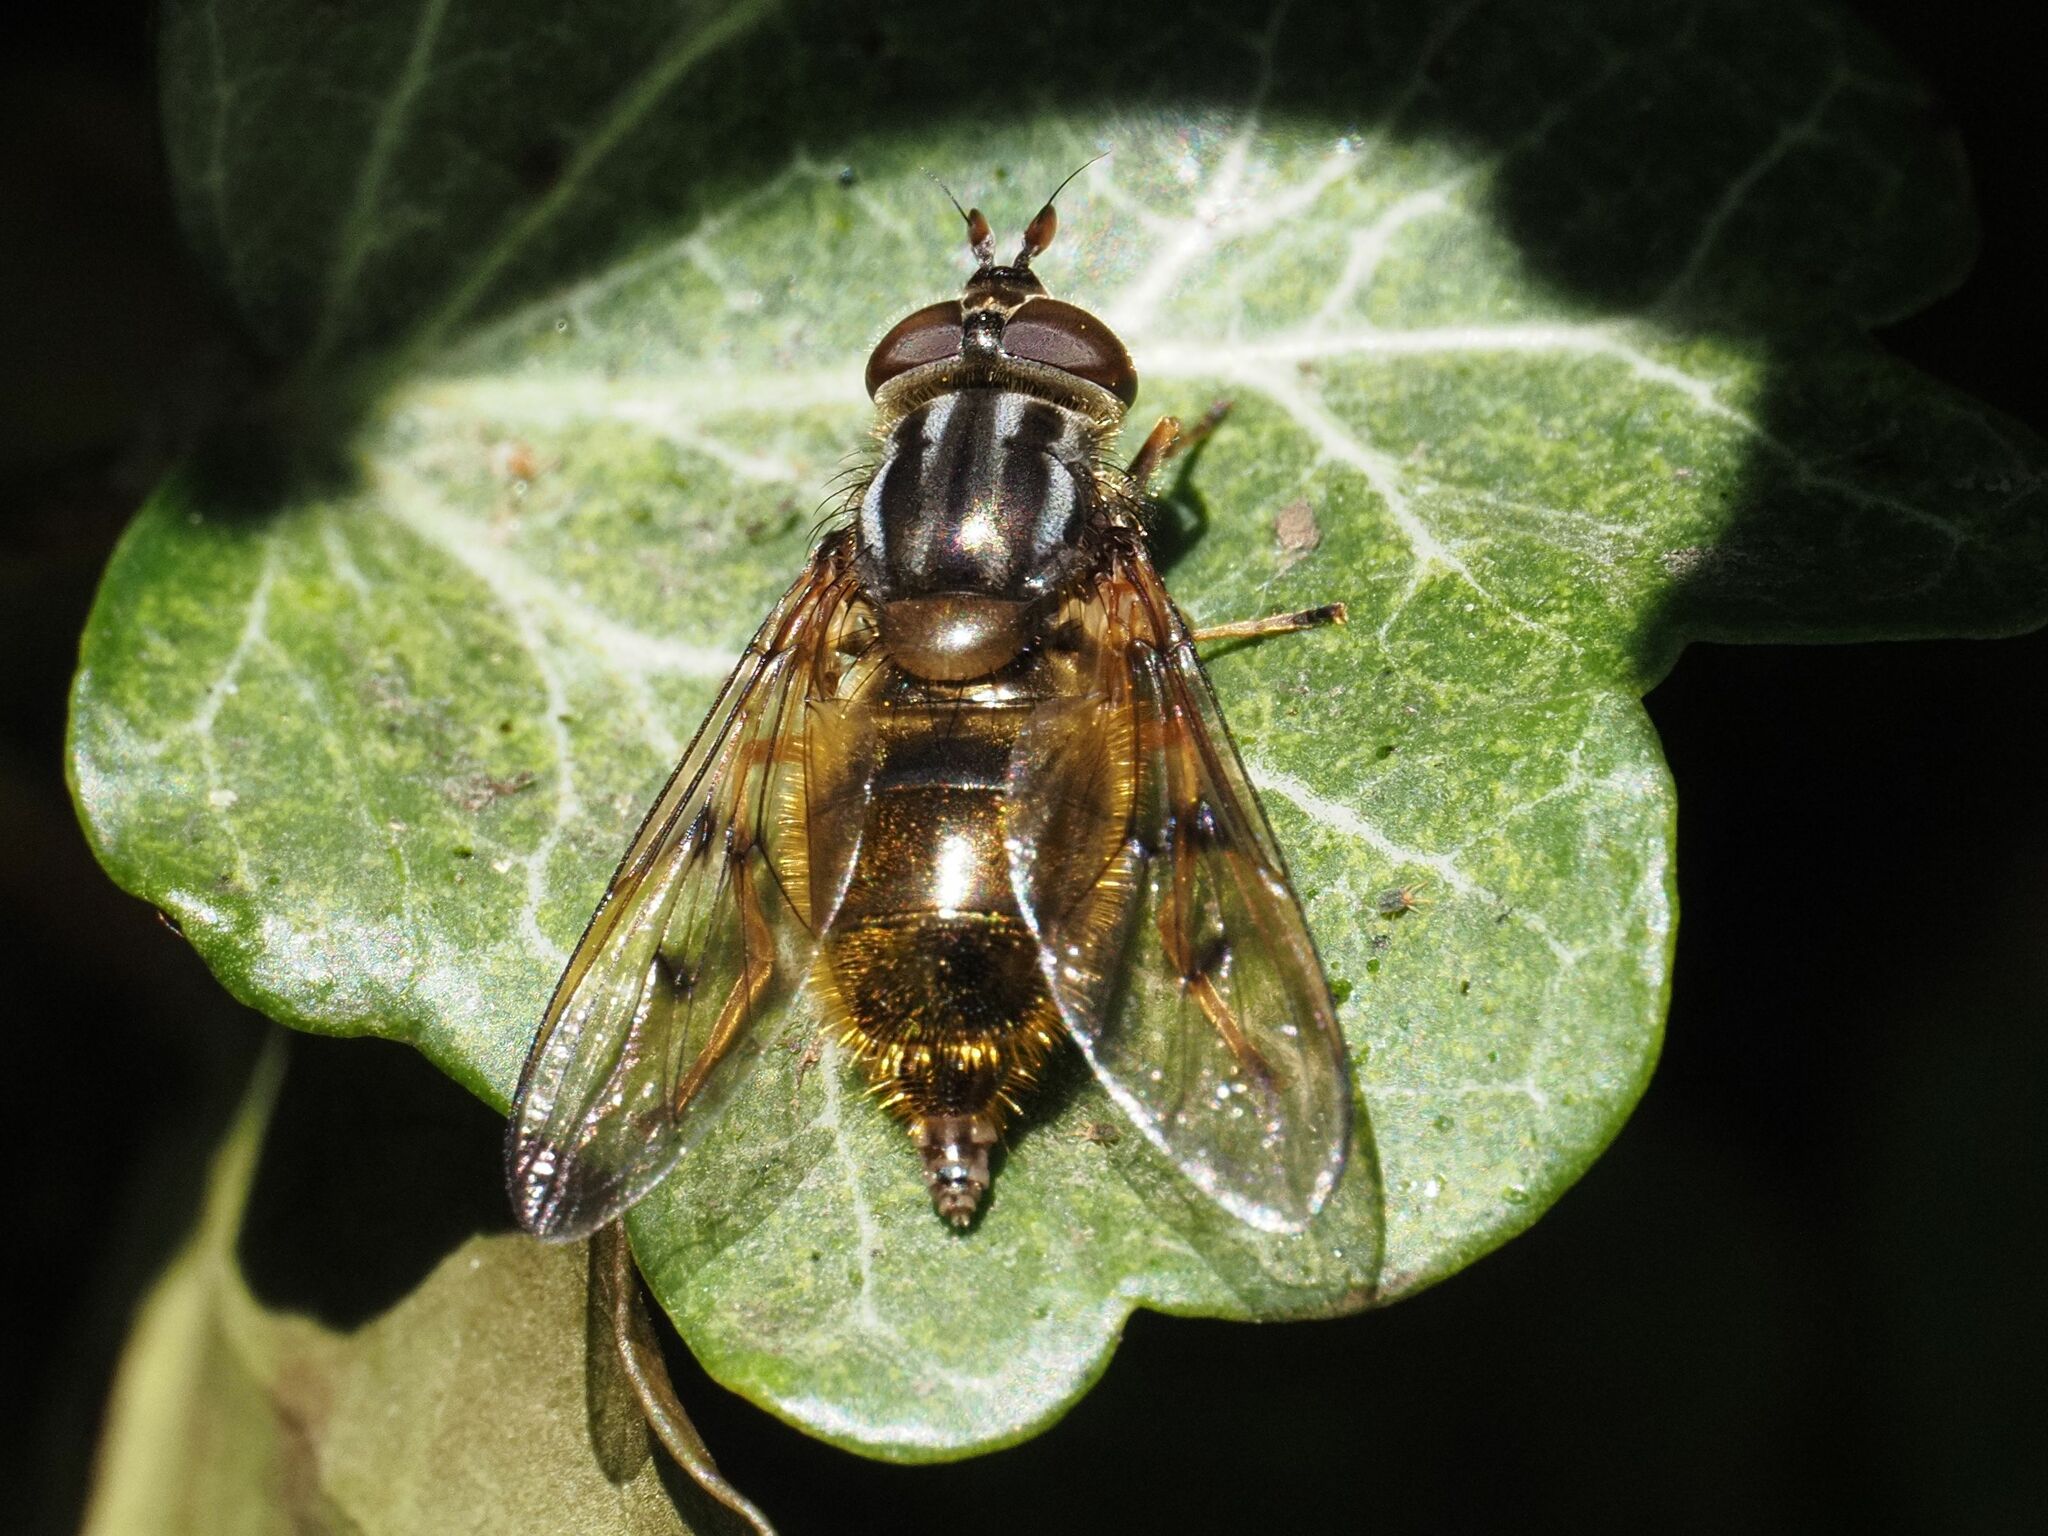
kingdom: Animalia
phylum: Arthropoda
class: Insecta
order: Diptera
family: Syrphidae
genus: Ferdinandea
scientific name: Ferdinandea cuprea
